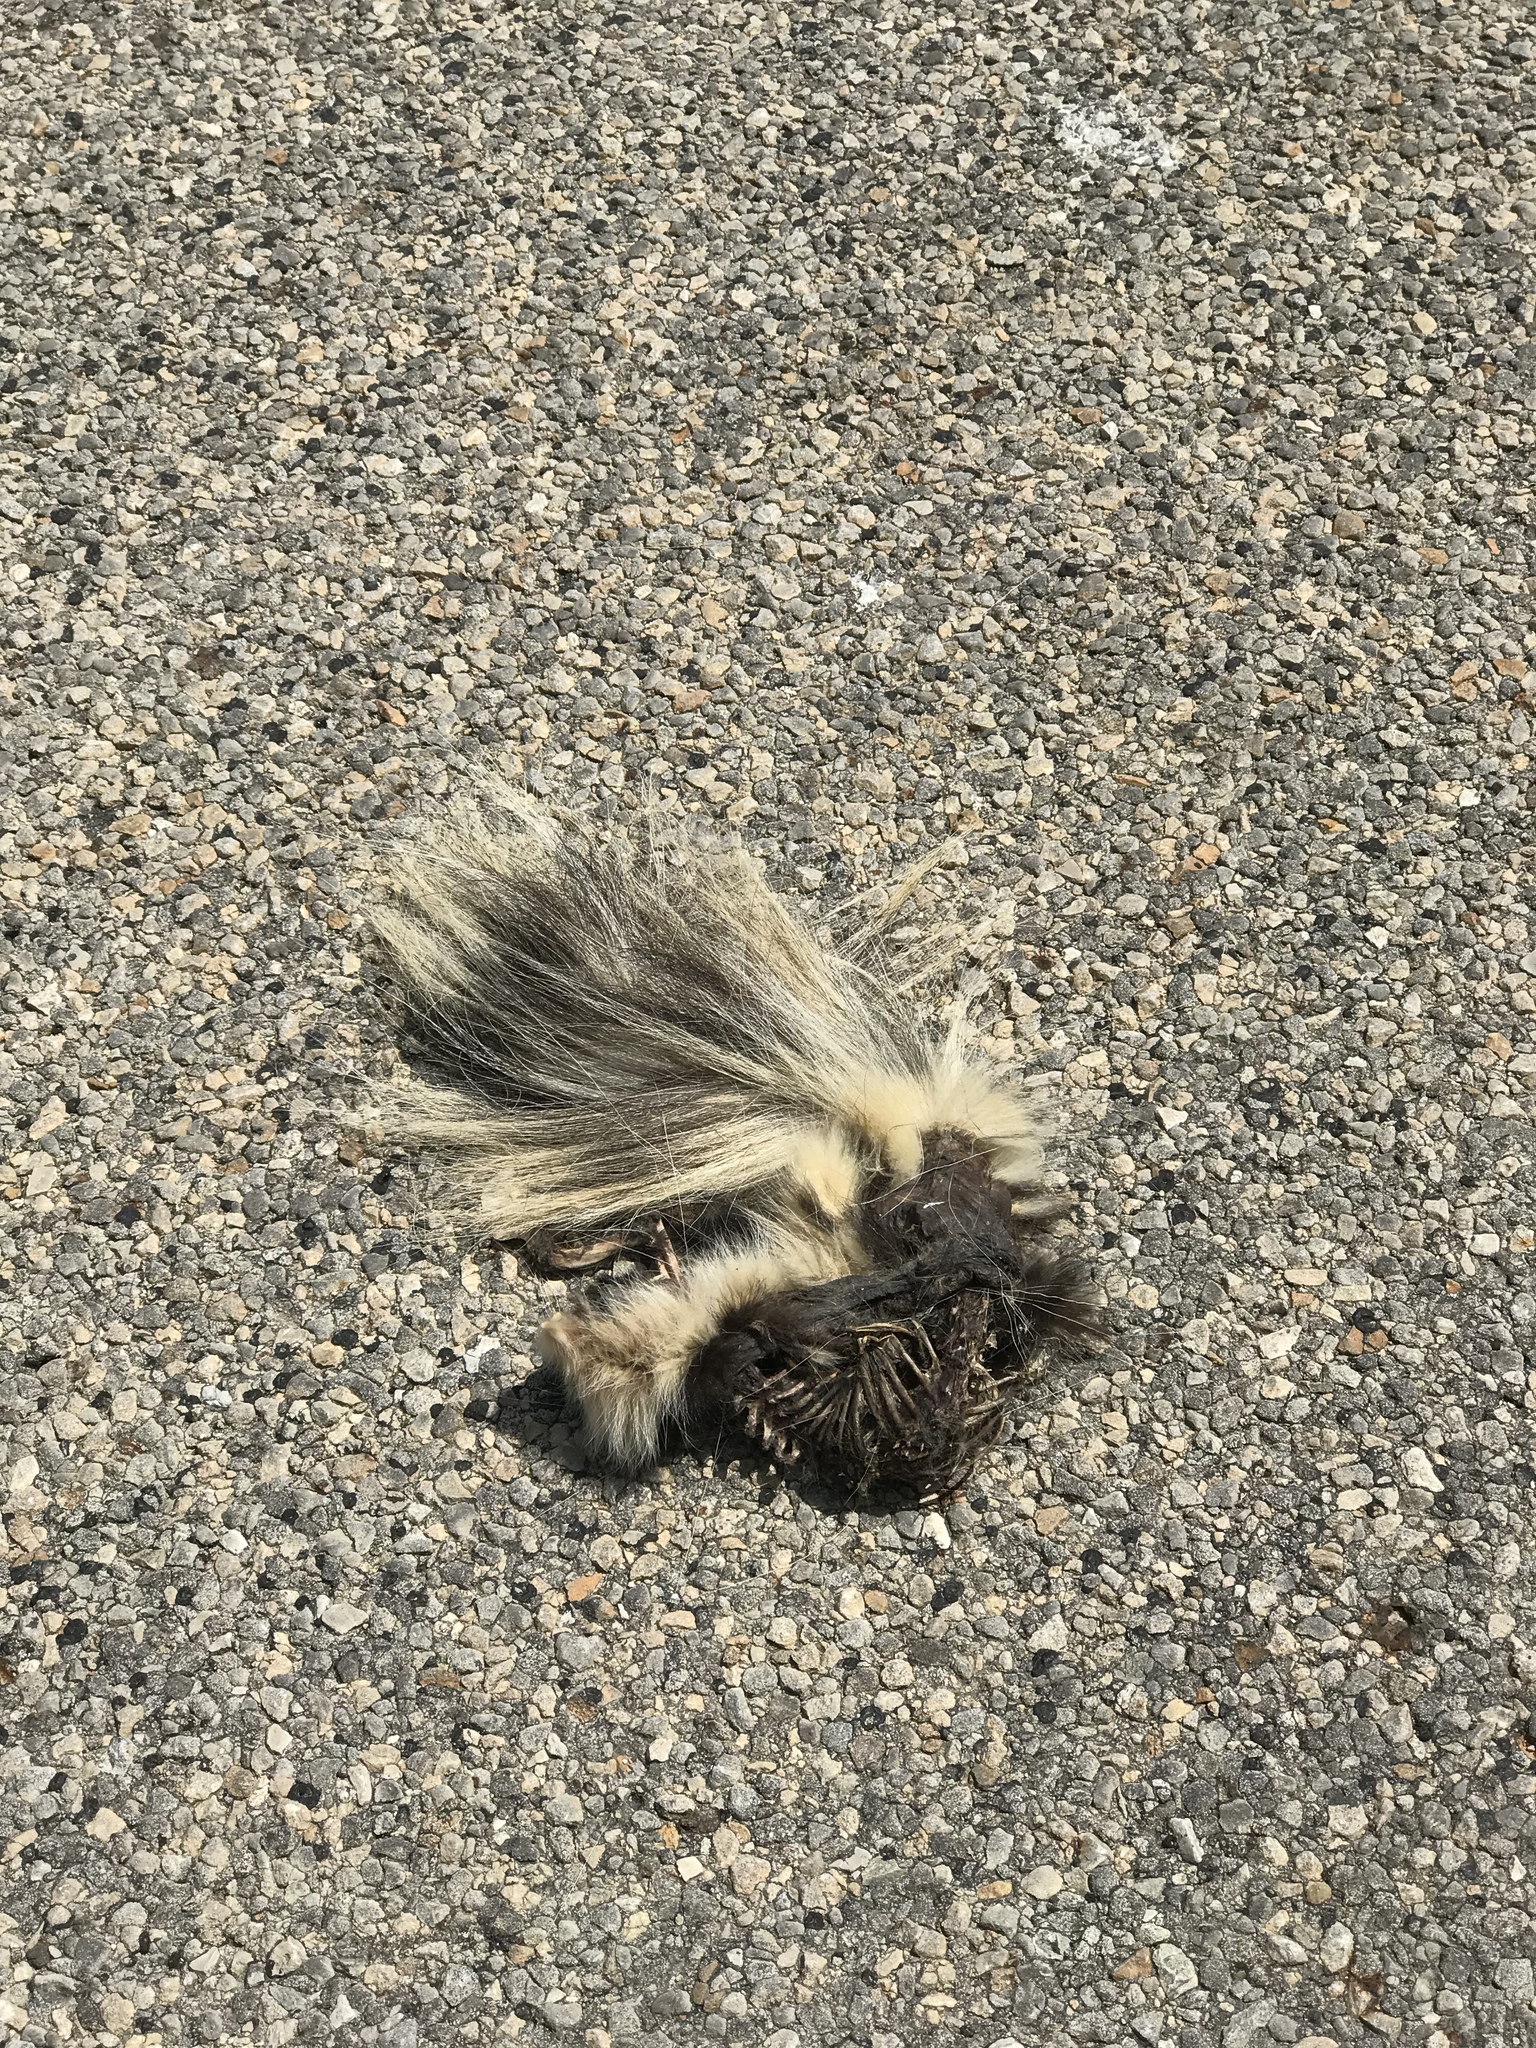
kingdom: Animalia
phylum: Chordata
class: Mammalia
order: Carnivora
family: Mephitidae
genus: Mephitis
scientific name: Mephitis mephitis
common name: Striped skunk
